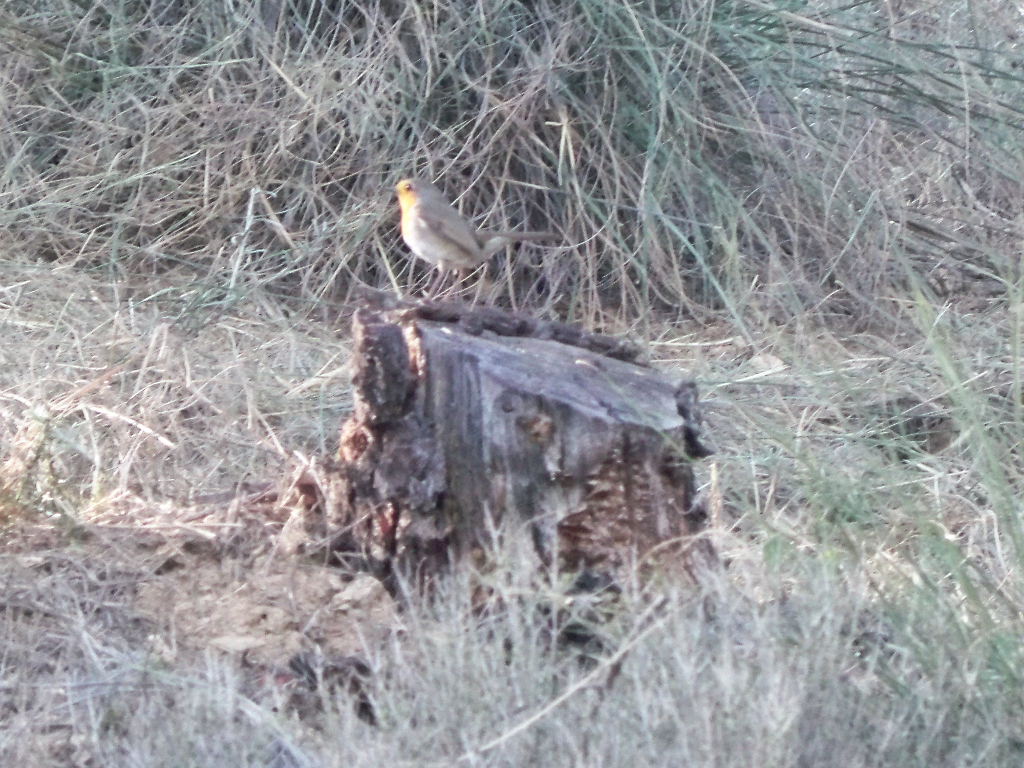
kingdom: Animalia
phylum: Chordata
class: Aves
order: Passeriformes
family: Muscicapidae
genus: Erithacus
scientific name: Erithacus rubecula
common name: European robin
